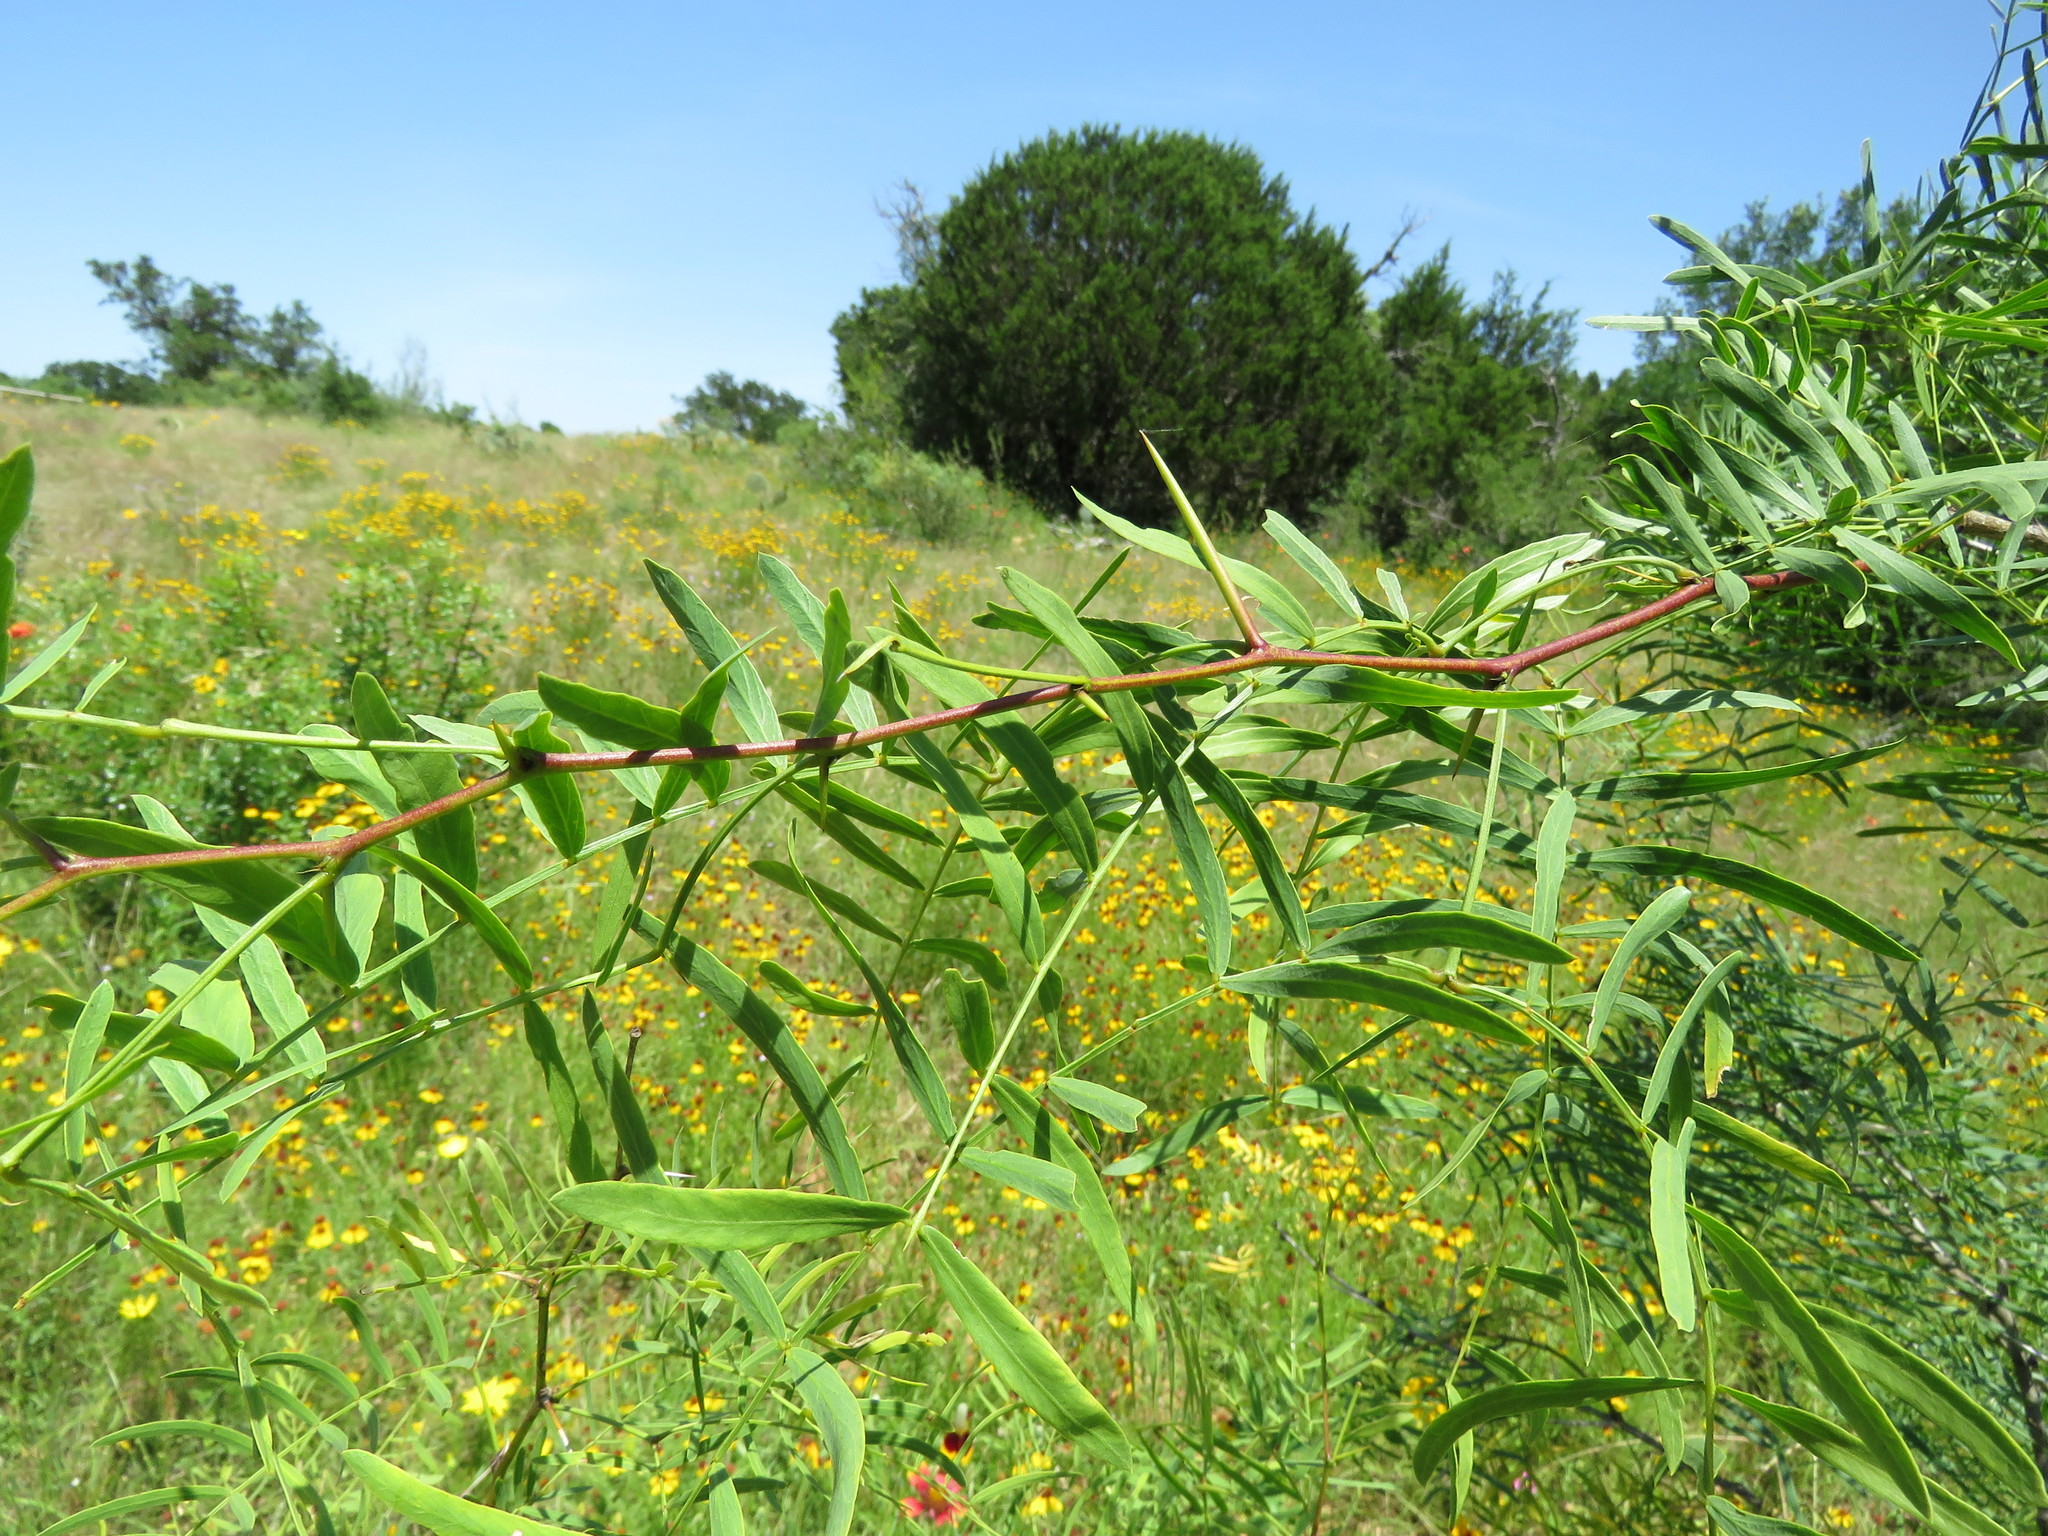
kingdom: Plantae
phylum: Tracheophyta
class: Magnoliopsida
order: Fabales
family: Fabaceae
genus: Prosopis
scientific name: Prosopis glandulosa
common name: Honey mesquite
